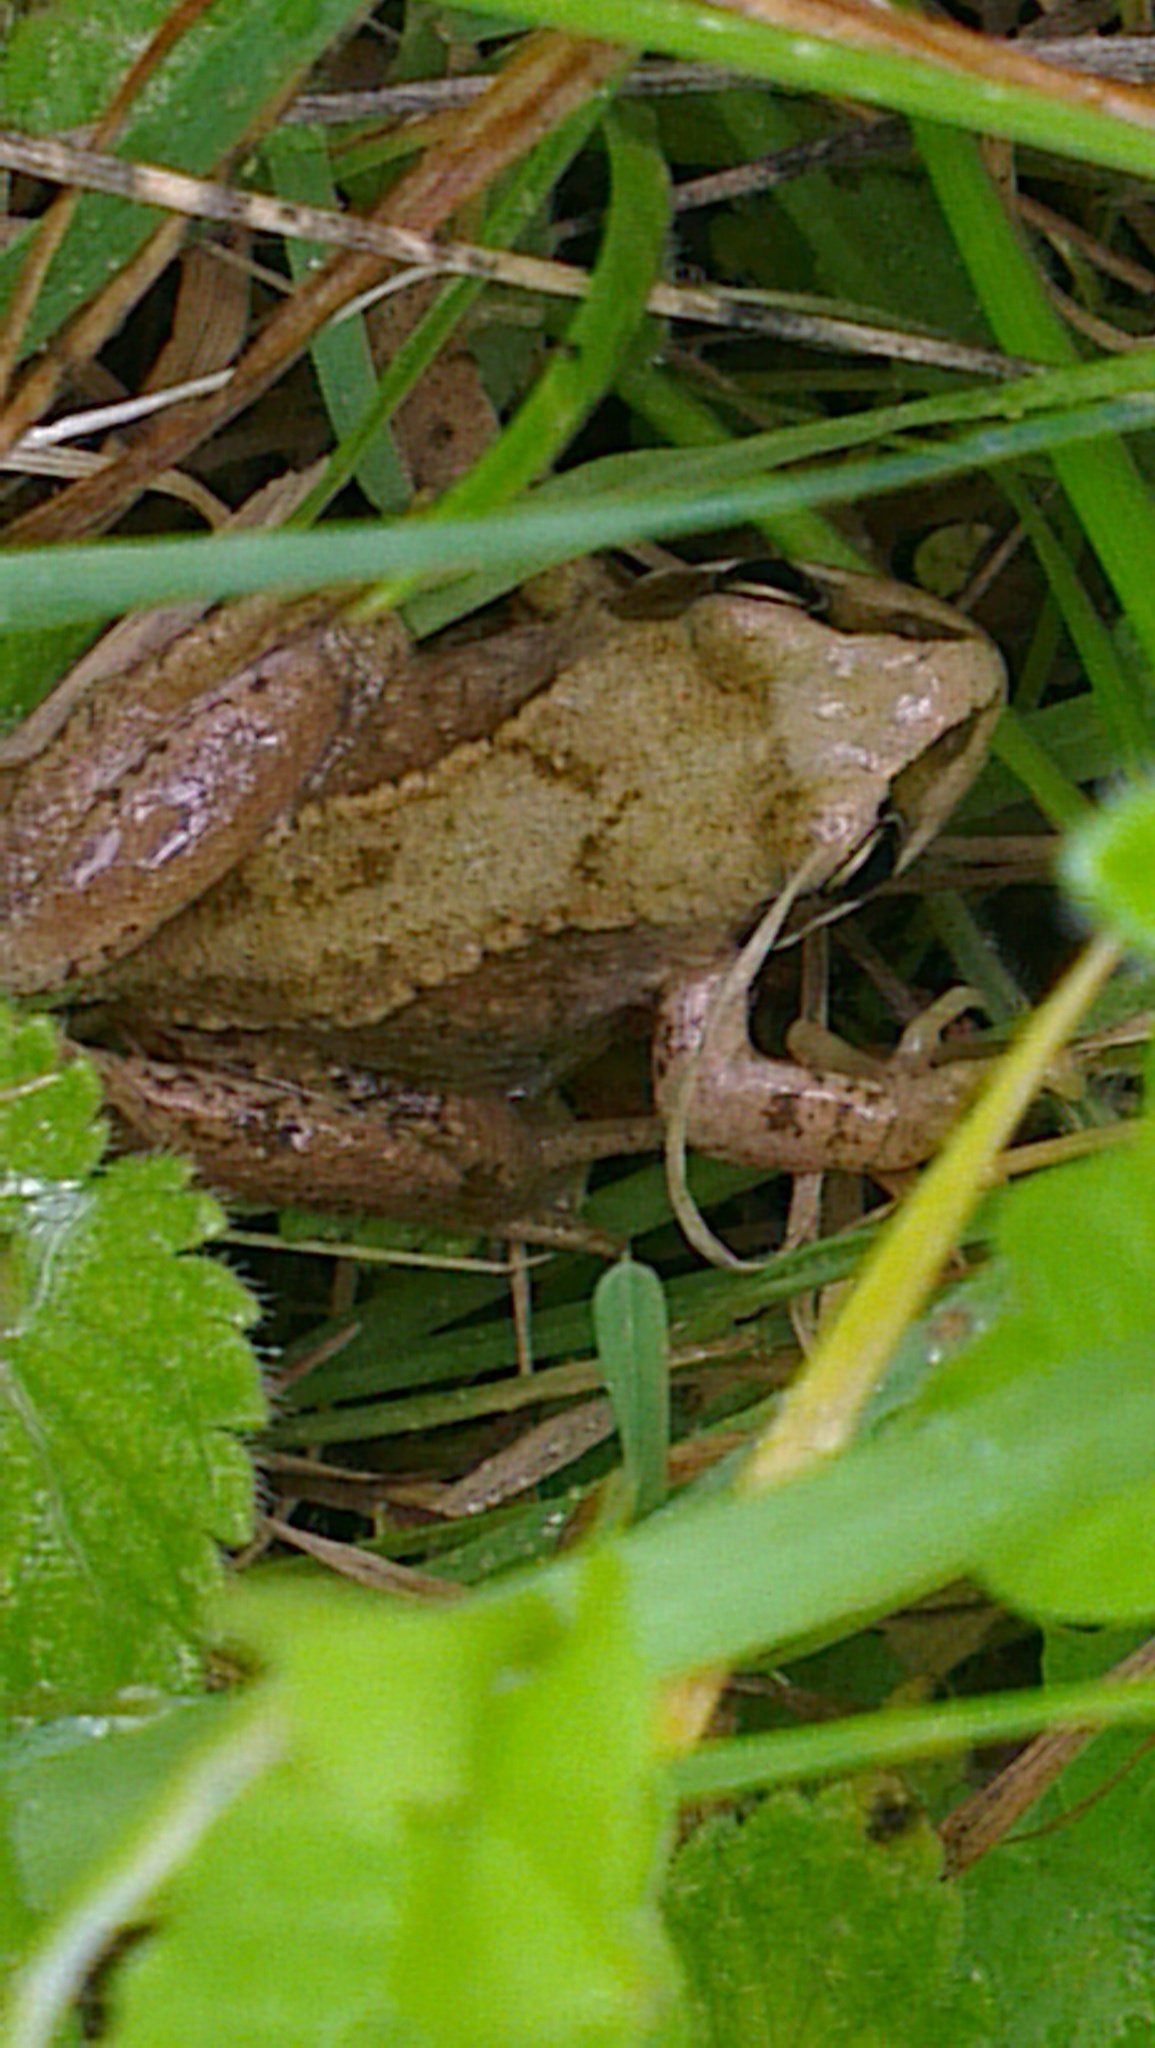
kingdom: Animalia
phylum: Chordata
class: Amphibia
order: Anura
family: Ranidae
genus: Rana
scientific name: Rana temporaria
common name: Common frog
